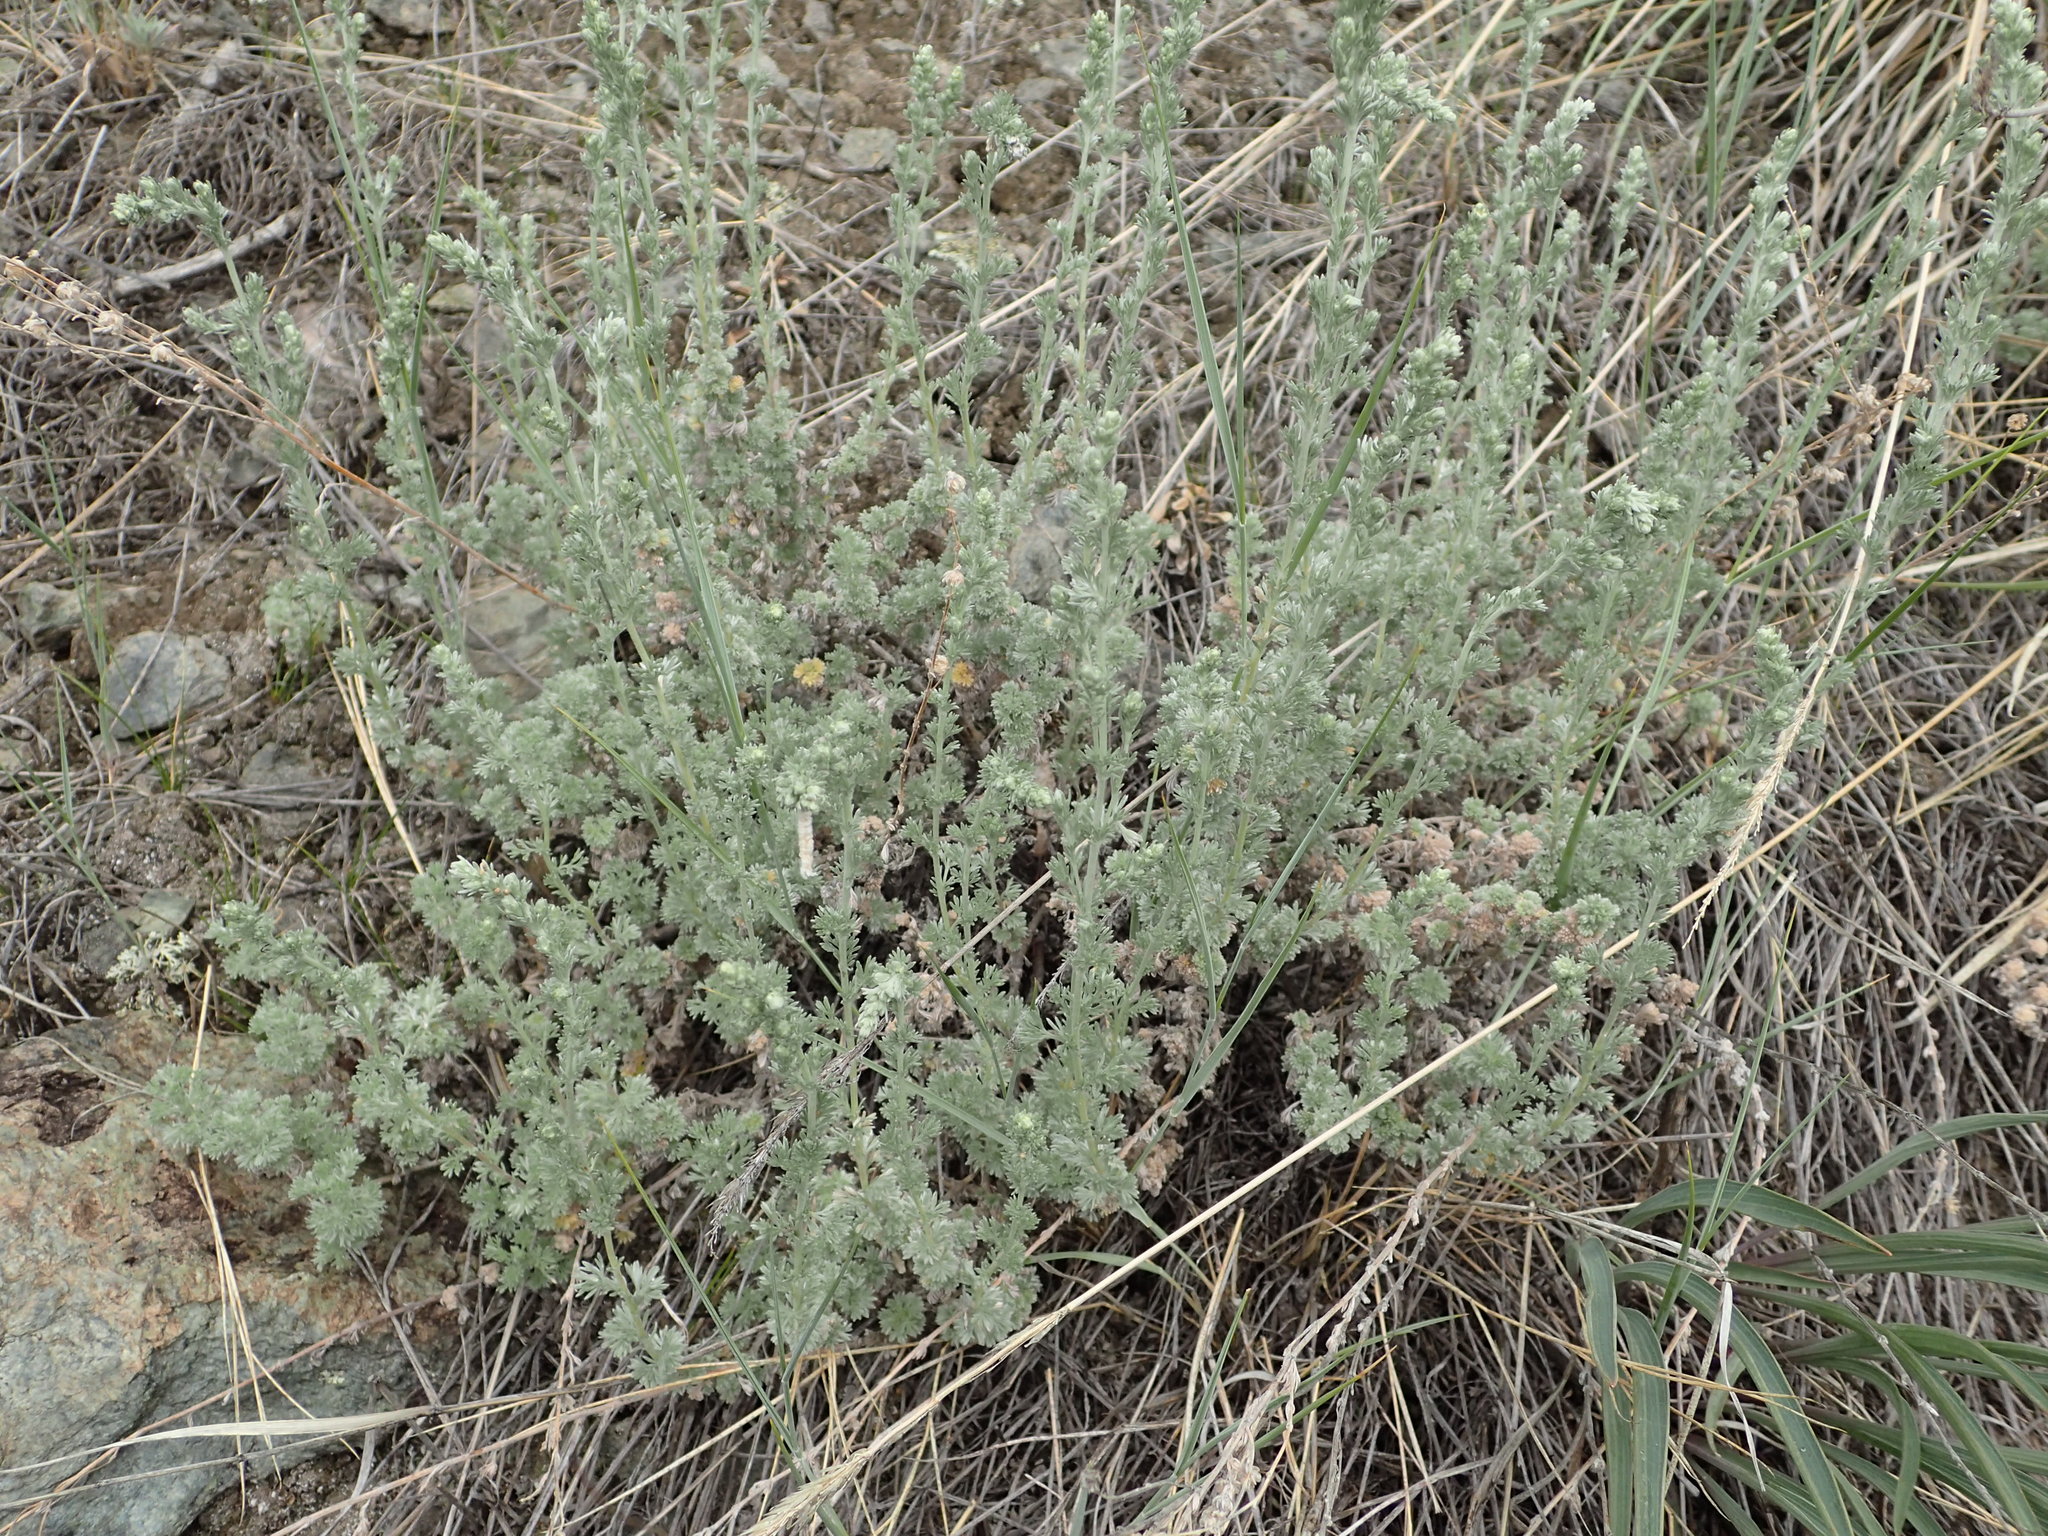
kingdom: Plantae
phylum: Tracheophyta
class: Magnoliopsida
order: Asterales
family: Asteraceae
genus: Artemisia
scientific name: Artemisia frigida
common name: Prairie sagewort
